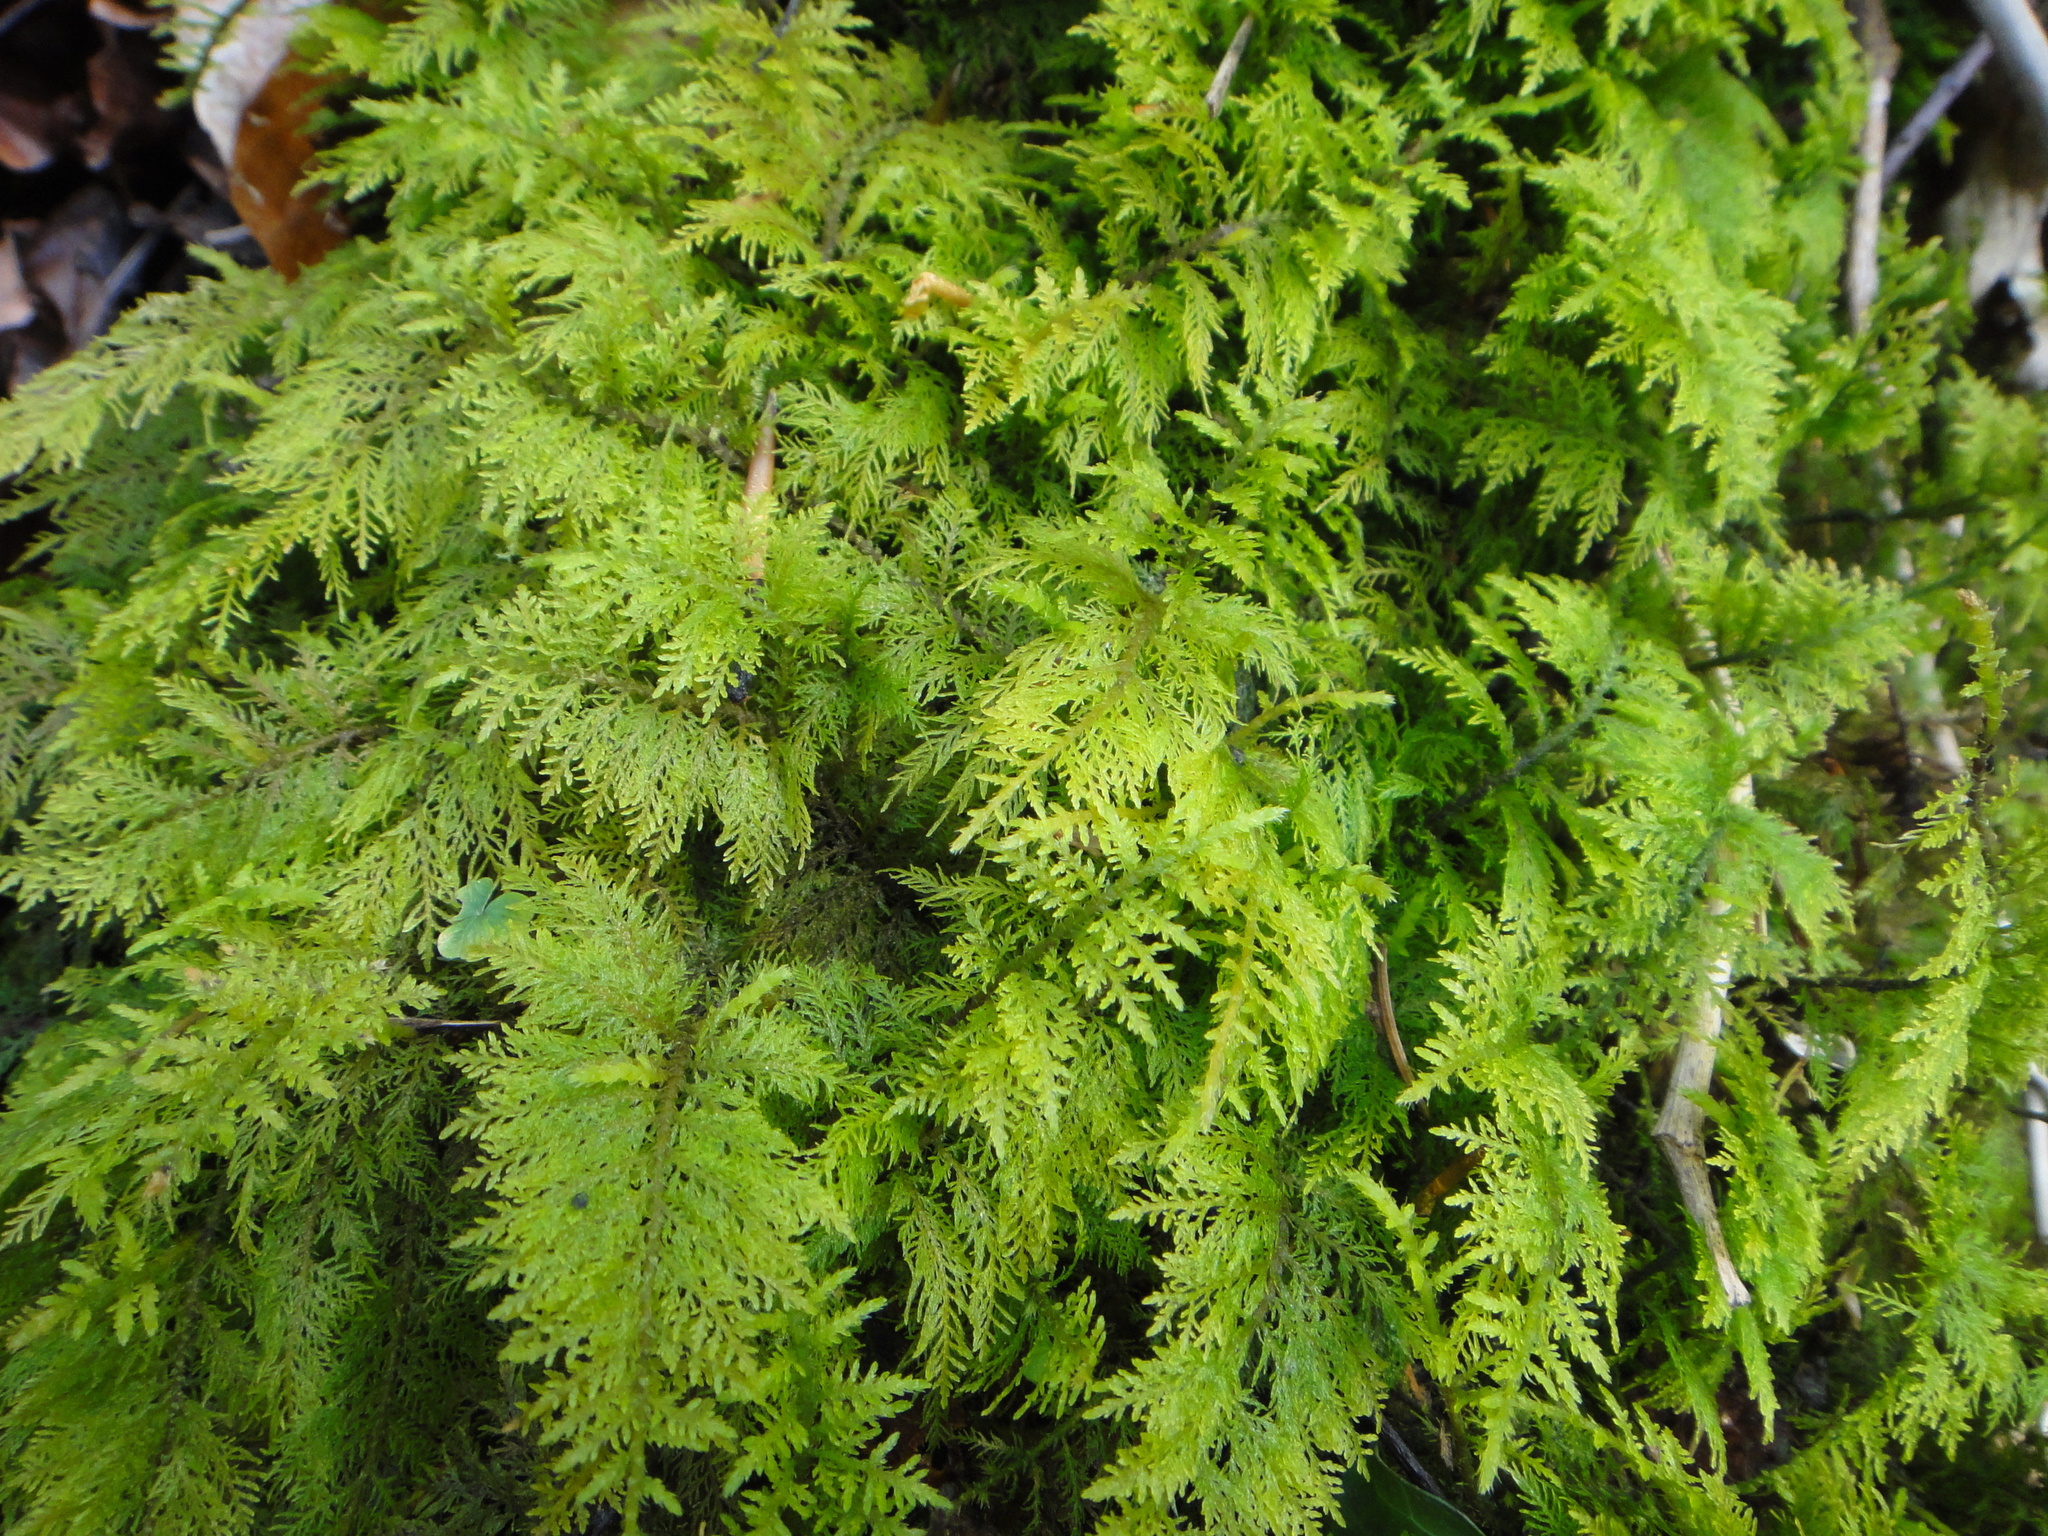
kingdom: Plantae
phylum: Bryophyta
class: Bryopsida
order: Hypnales
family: Thuidiaceae
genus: Thuidium
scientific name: Thuidium tamariscinum
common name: Common tamarisk-moss
